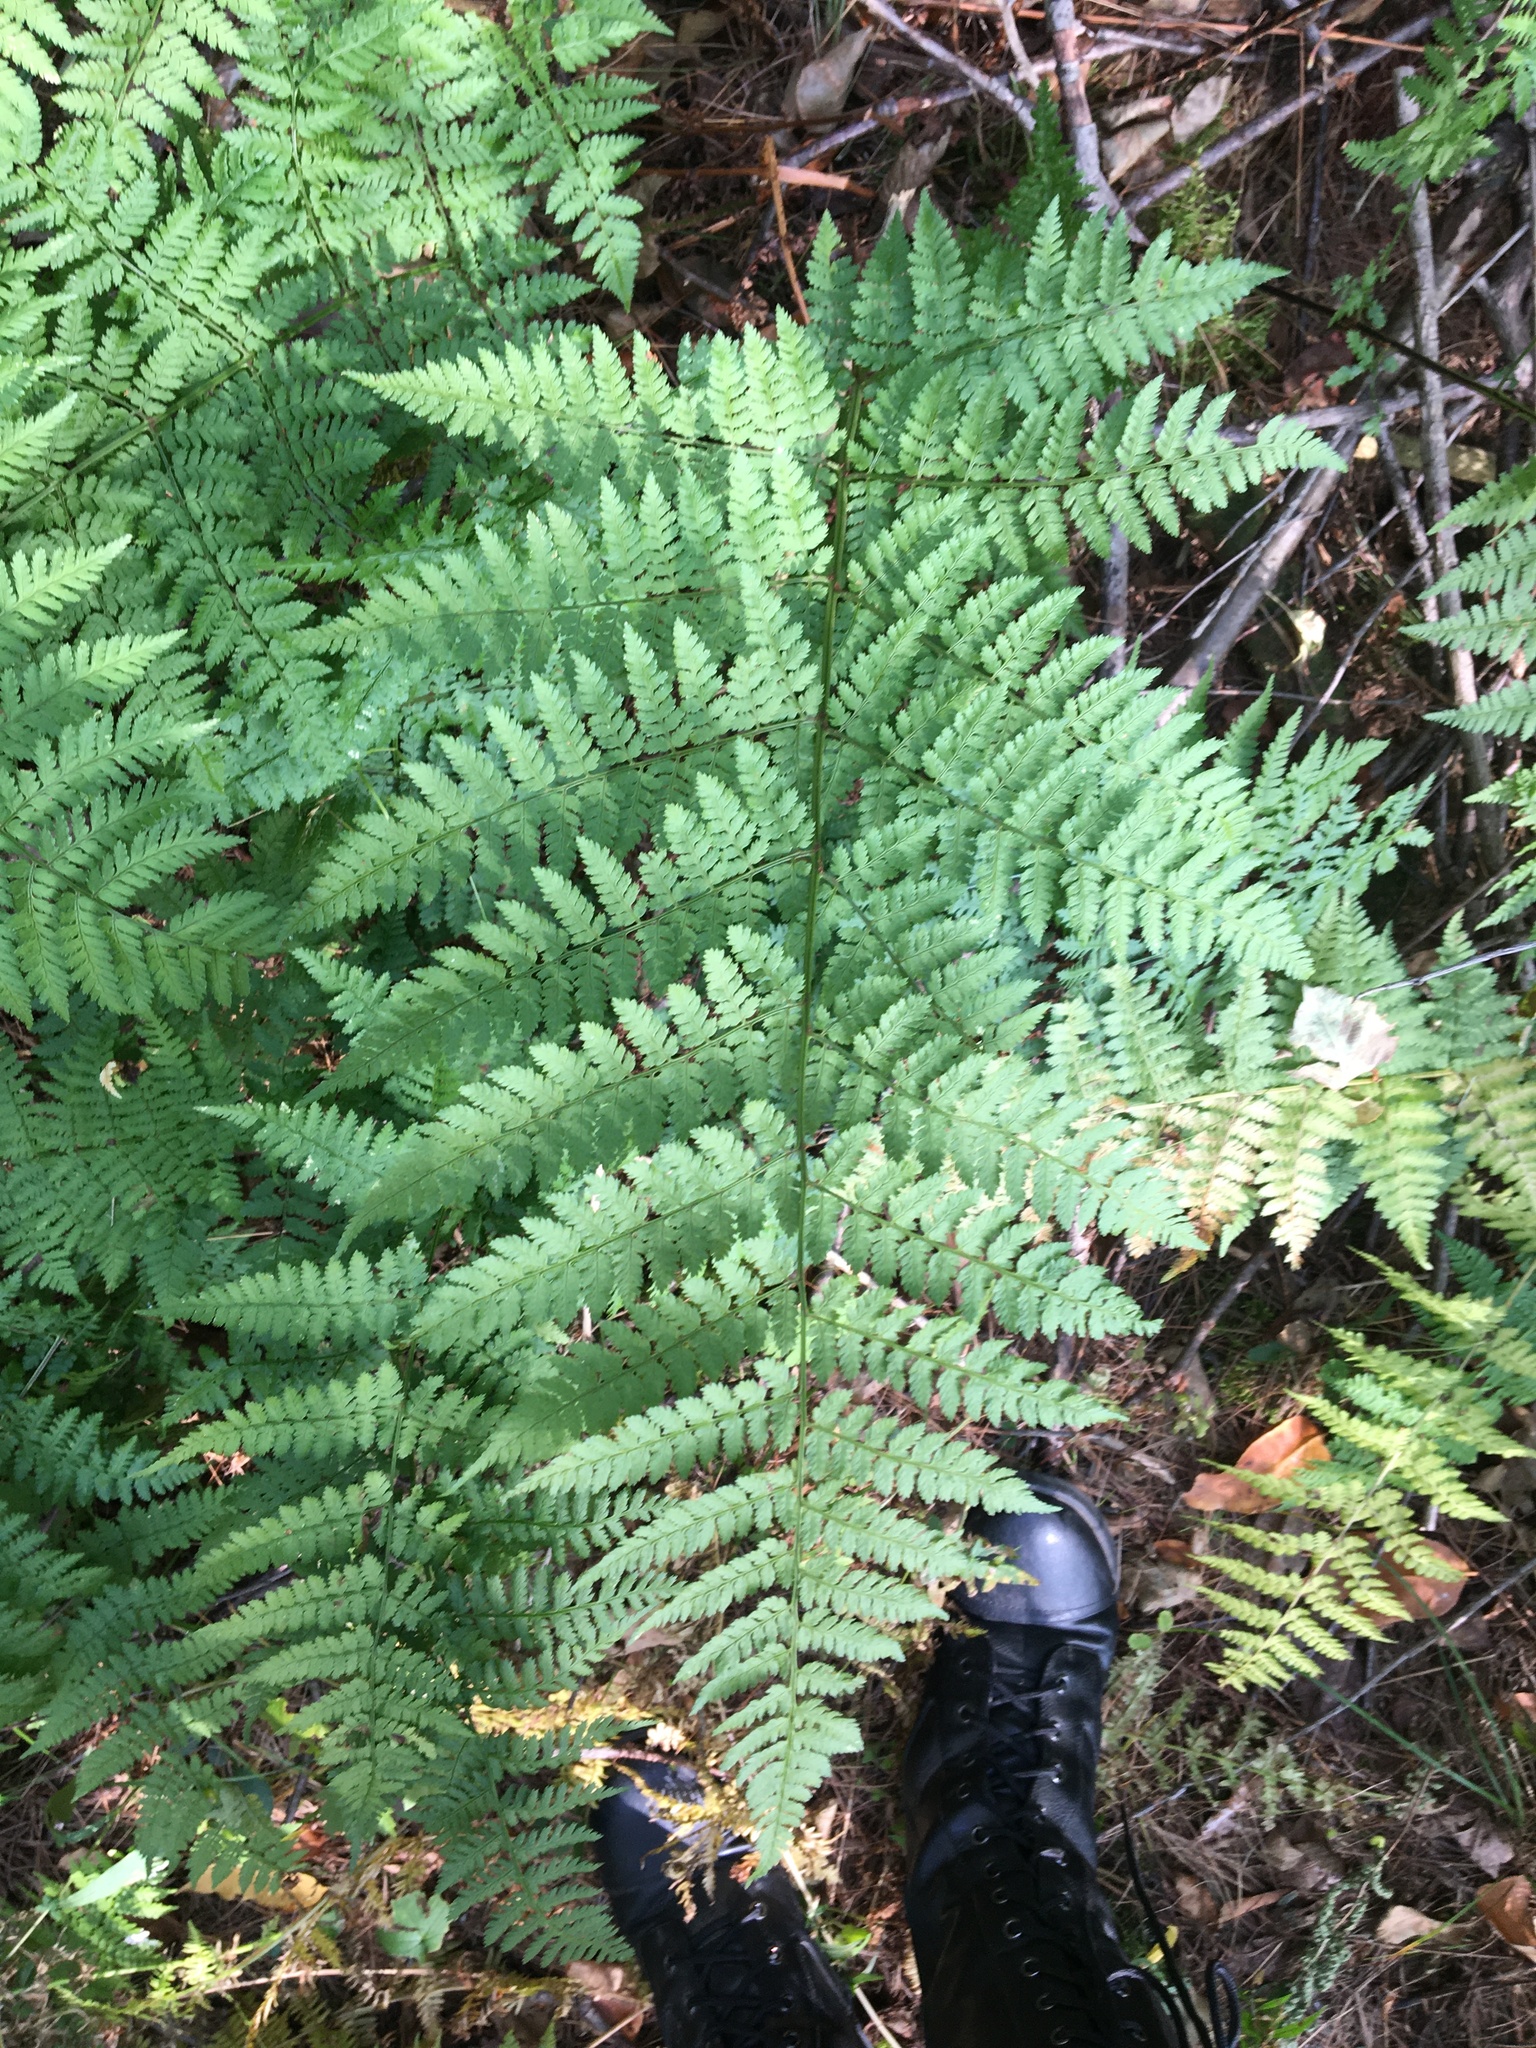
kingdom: Plantae
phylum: Tracheophyta
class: Polypodiopsida
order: Polypodiales
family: Dryopteridaceae
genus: Dryopteris
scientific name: Dryopteris intermedia
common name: Evergreen wood fern
